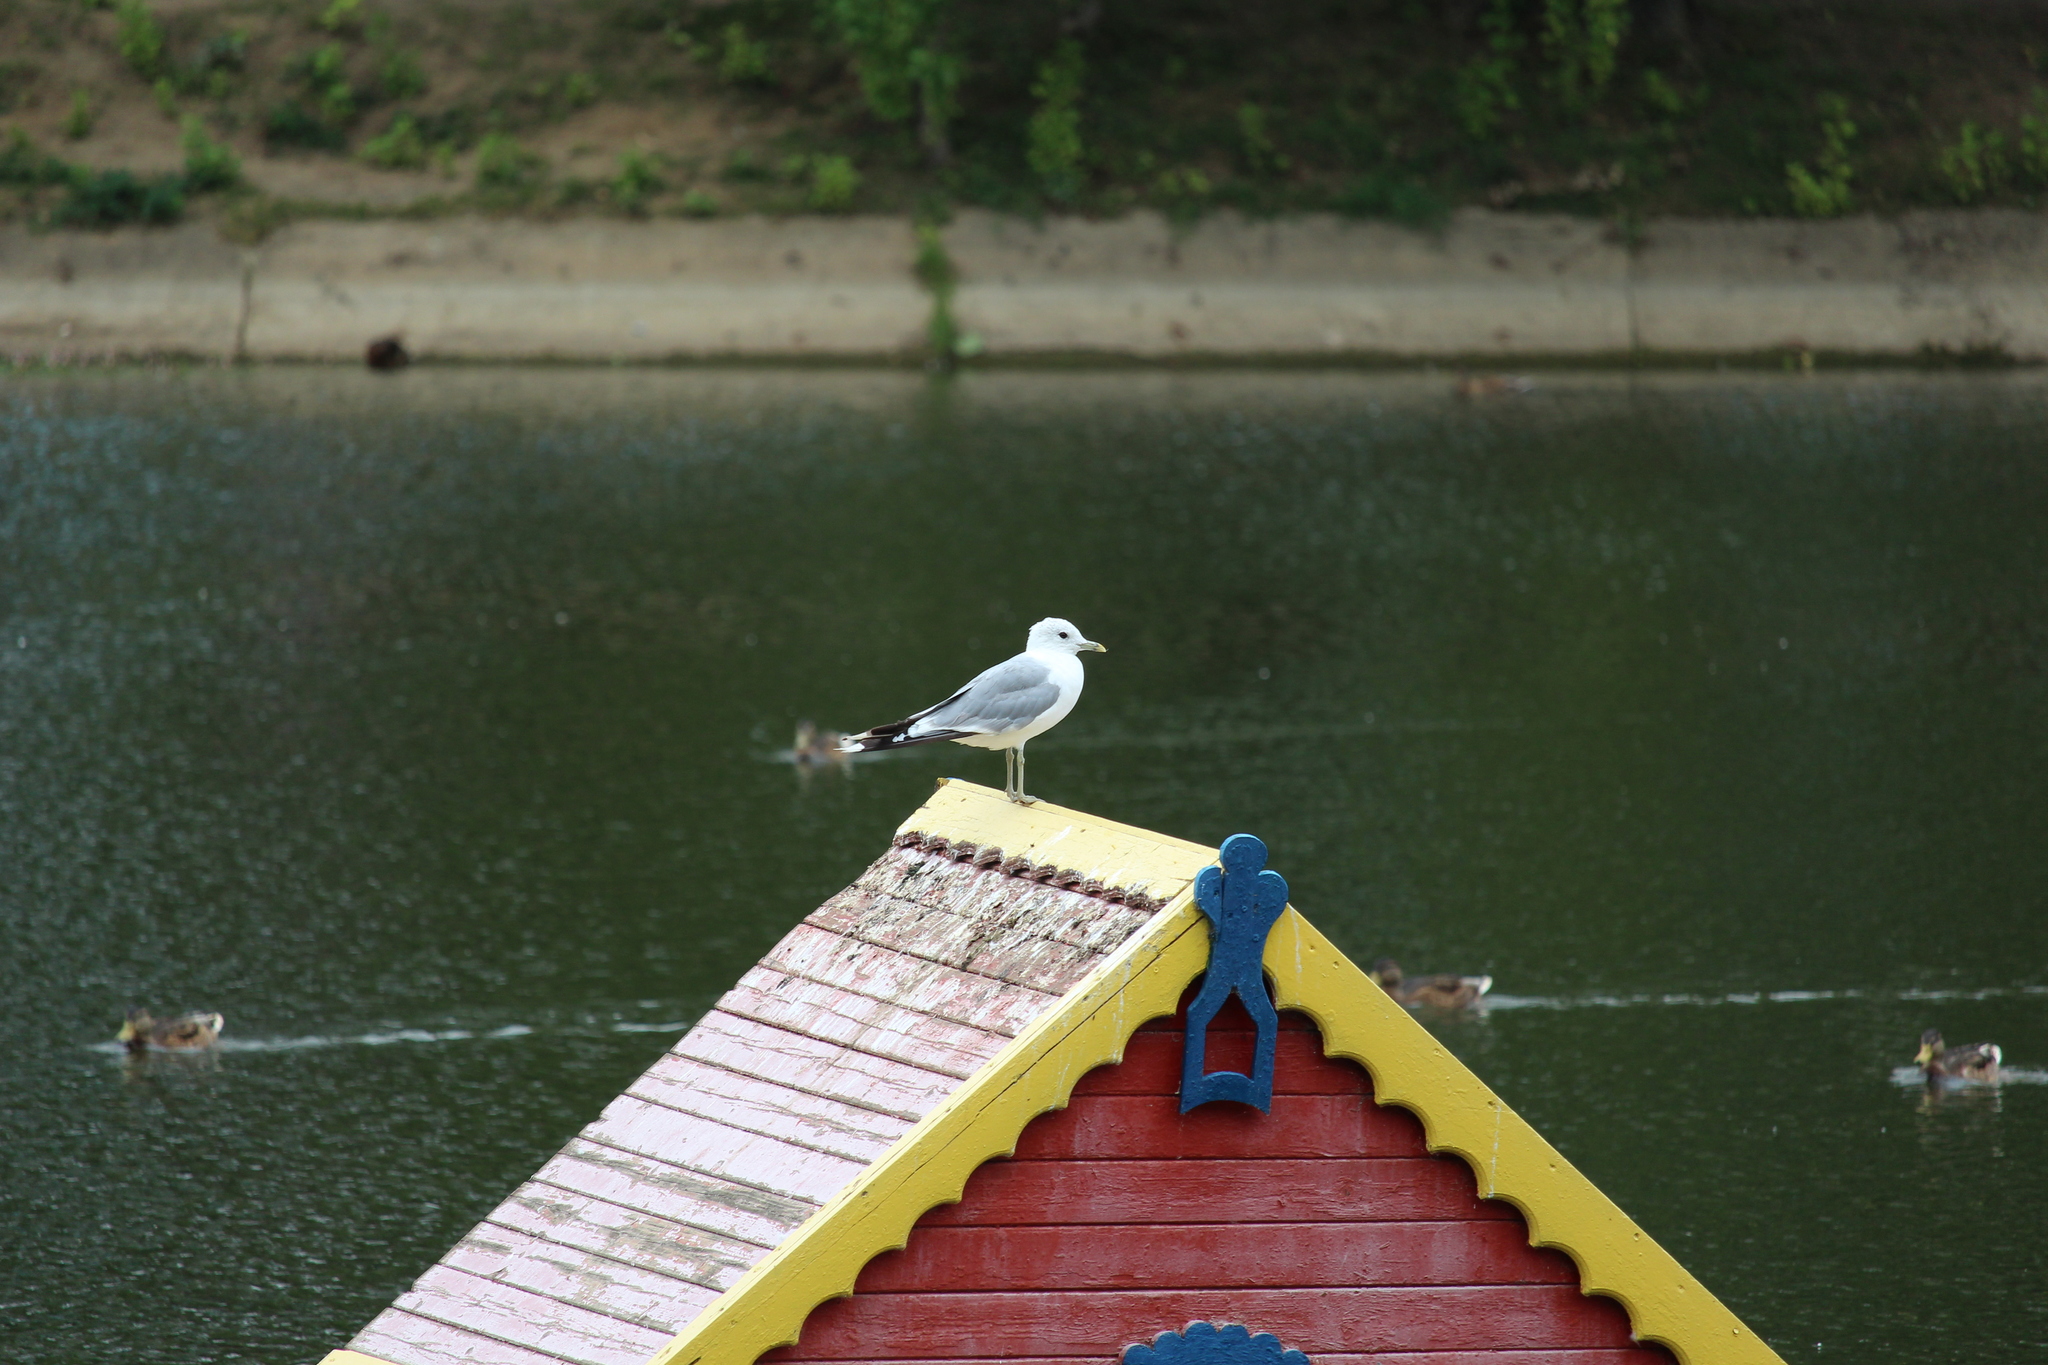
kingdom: Animalia
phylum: Chordata
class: Aves
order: Charadriiformes
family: Laridae
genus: Larus
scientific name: Larus canus
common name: Mew gull
